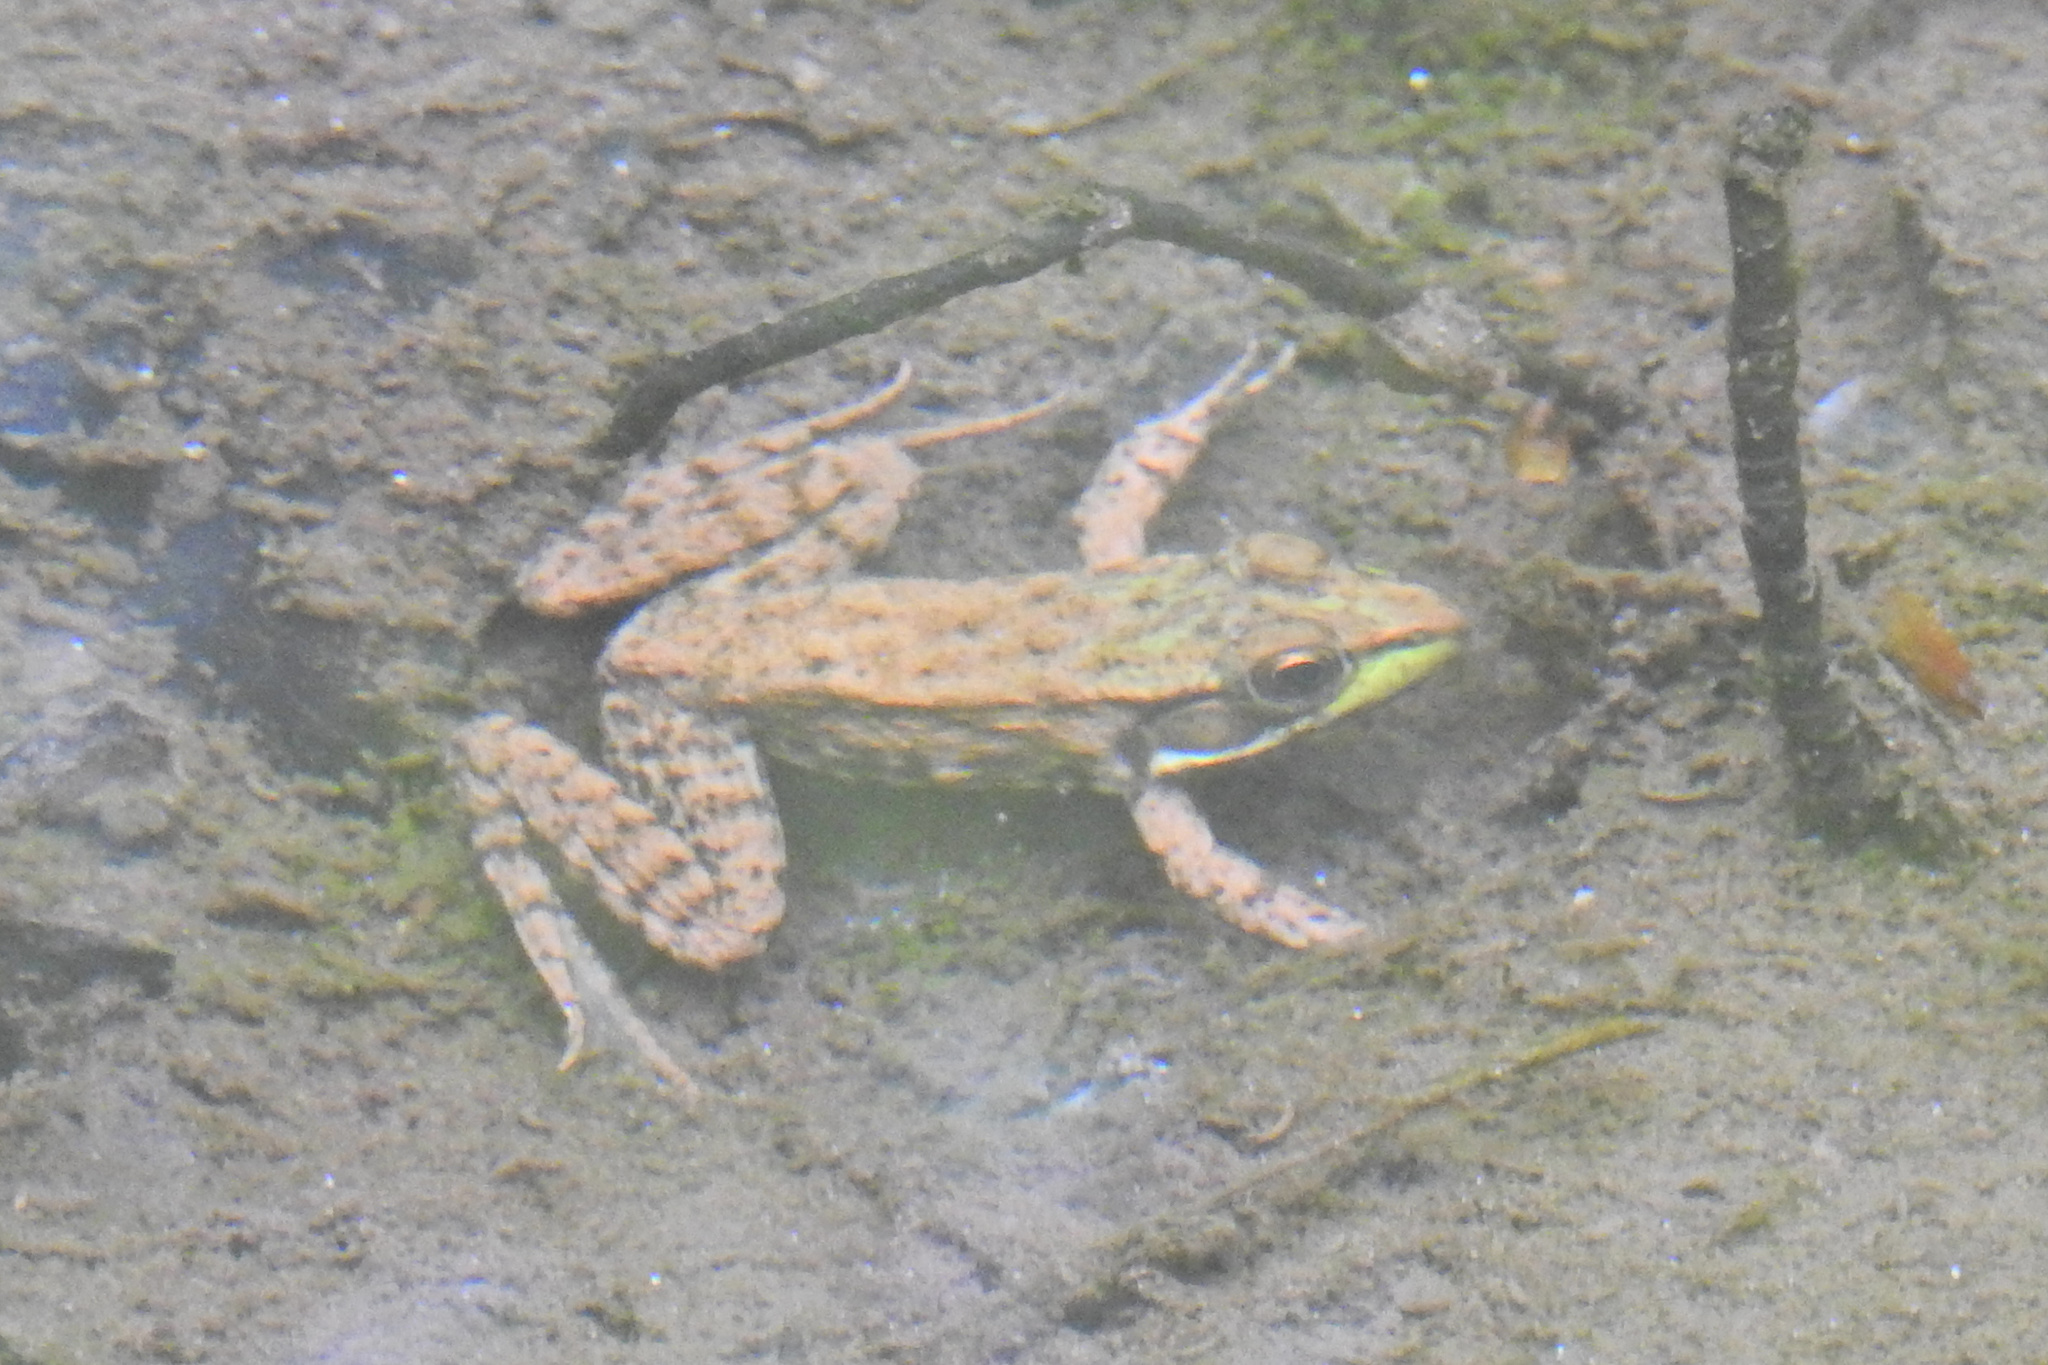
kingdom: Animalia
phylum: Chordata
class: Amphibia
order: Anura
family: Ranidae
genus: Lithobates
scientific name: Lithobates clamitans
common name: Green frog
